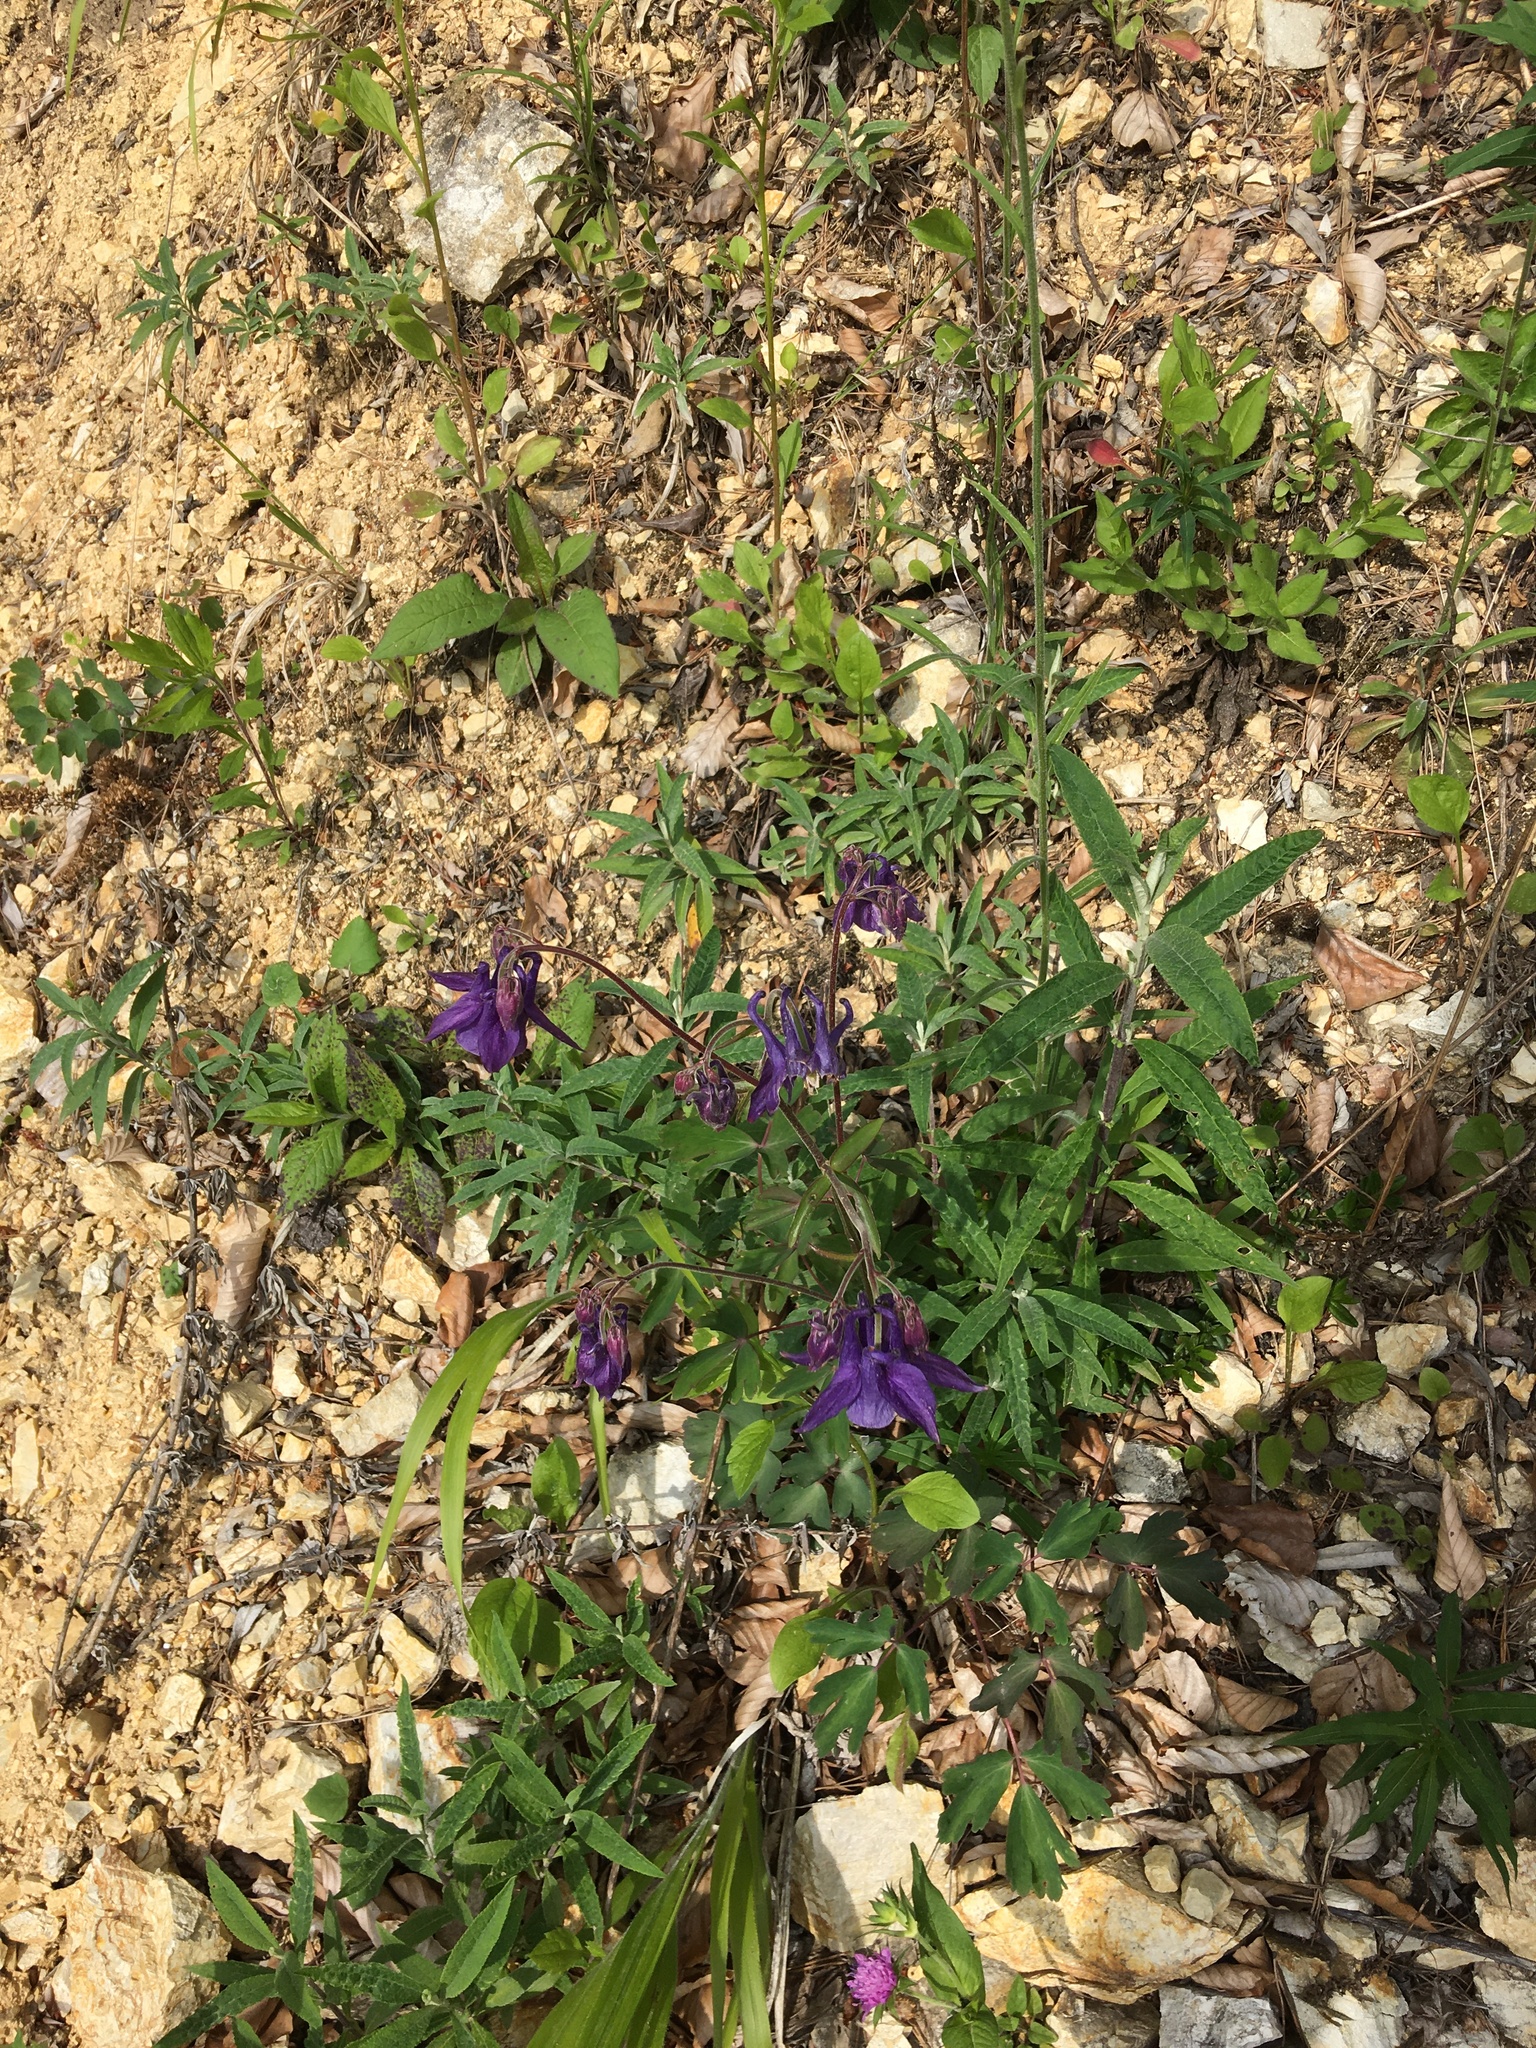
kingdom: Plantae
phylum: Tracheophyta
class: Magnoliopsida
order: Ranunculales
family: Ranunculaceae
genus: Aquilegia
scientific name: Aquilegia vulgaris
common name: Columbine
